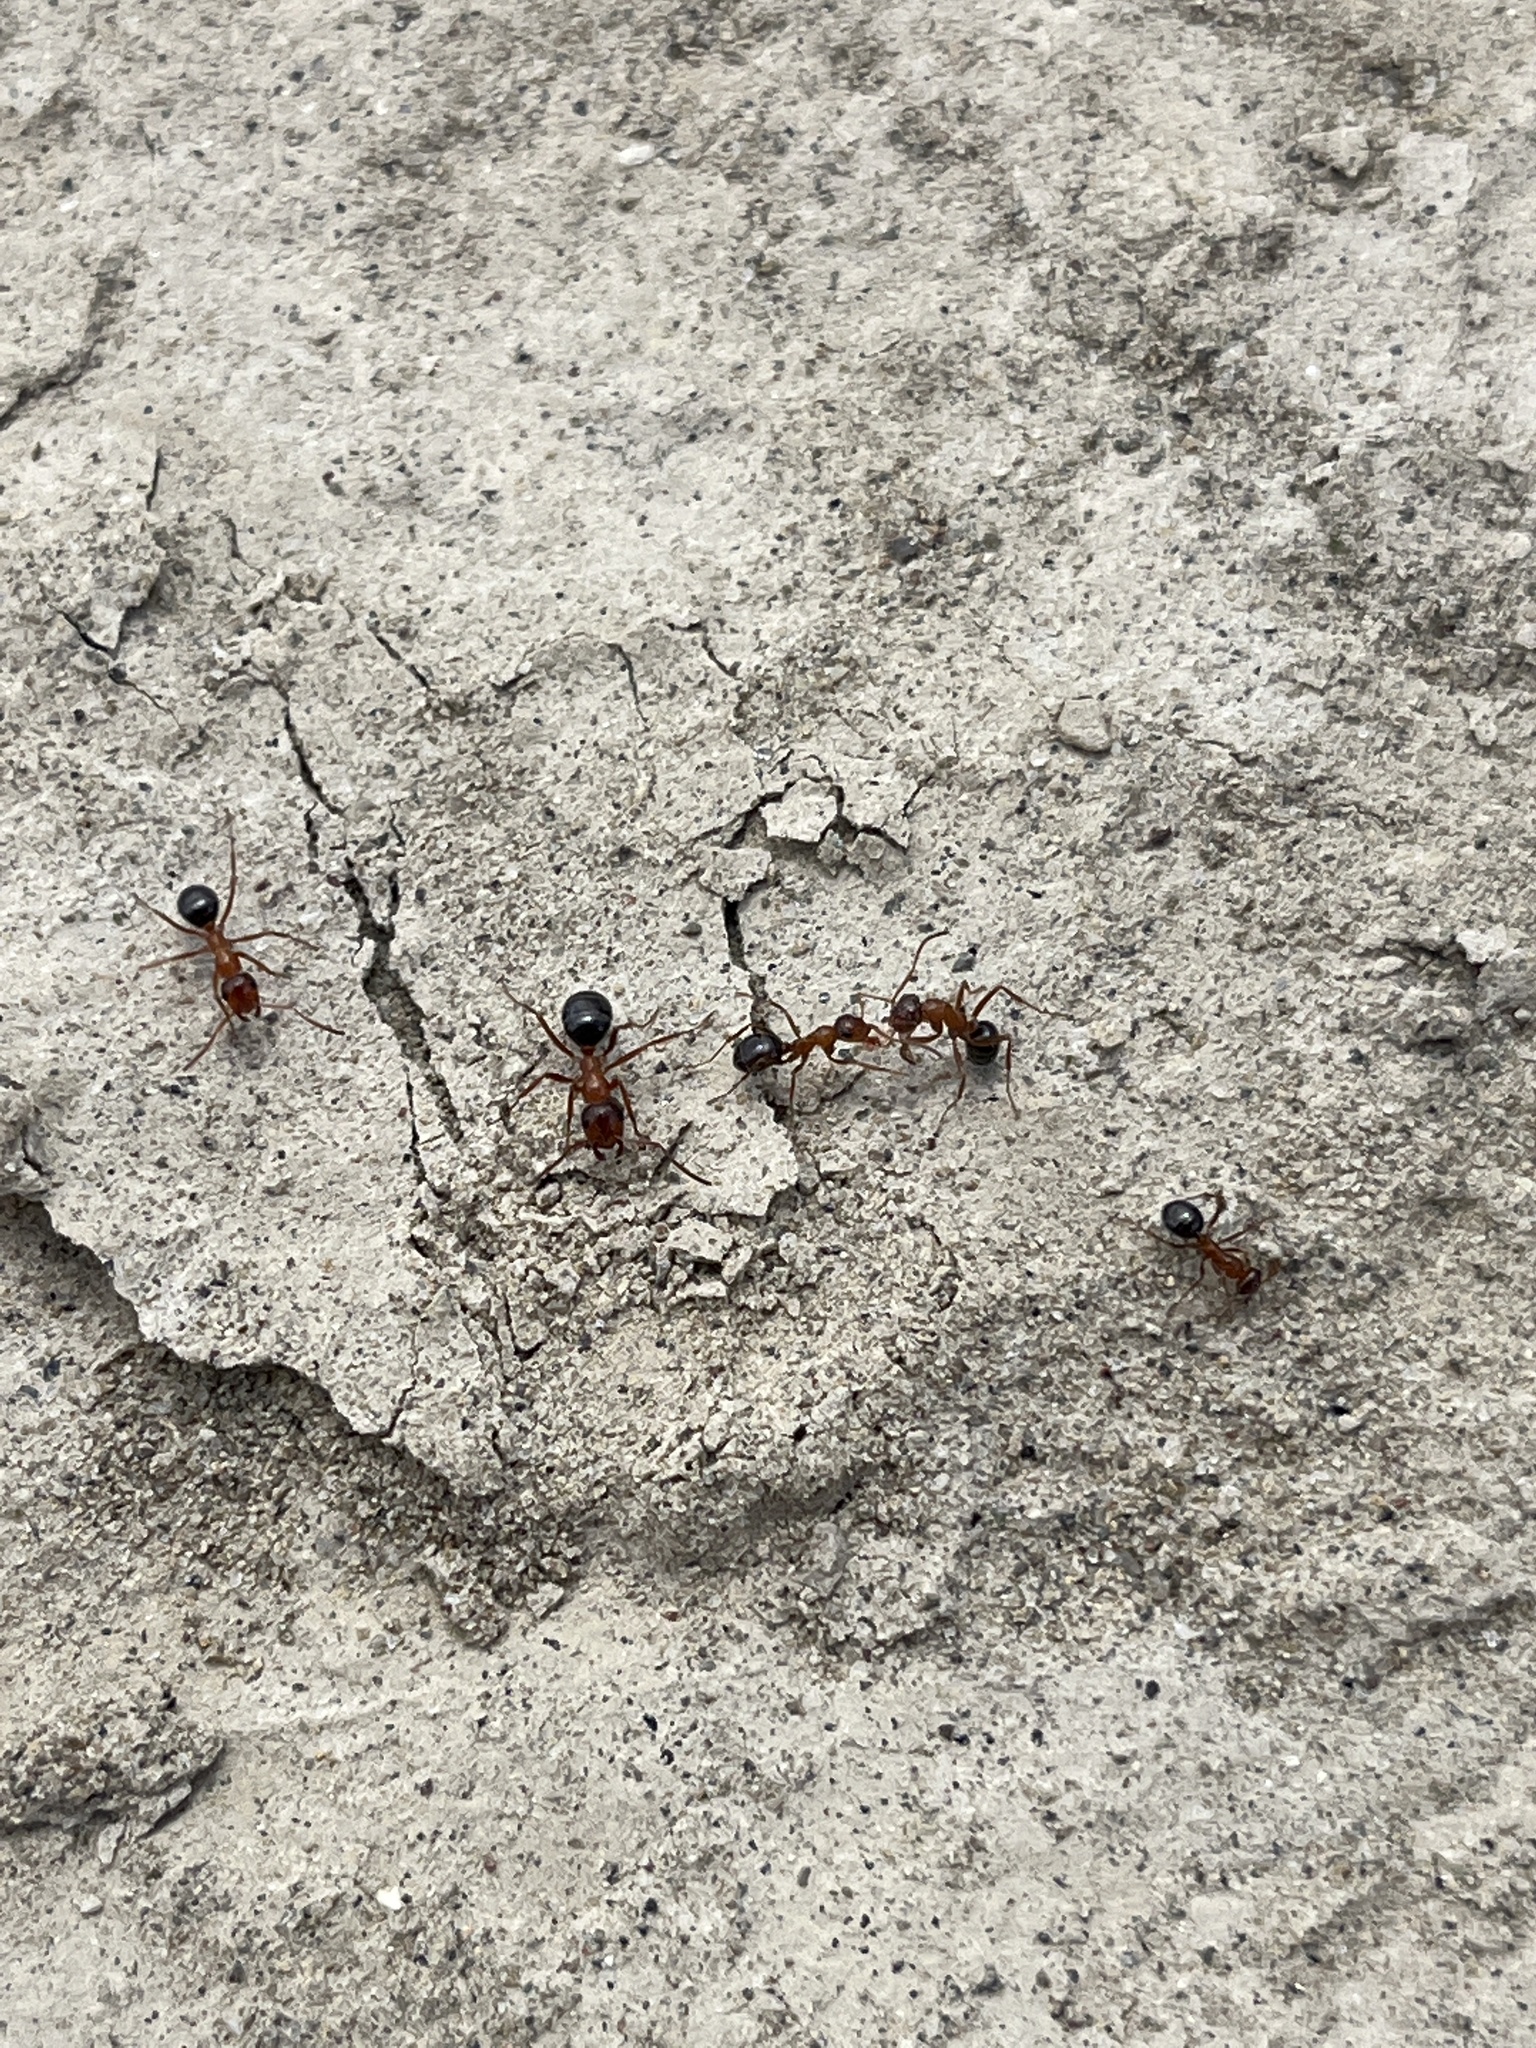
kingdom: Animalia
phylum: Arthropoda
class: Insecta
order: Hymenoptera
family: Formicidae
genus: Formica
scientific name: Formica perpilosa
